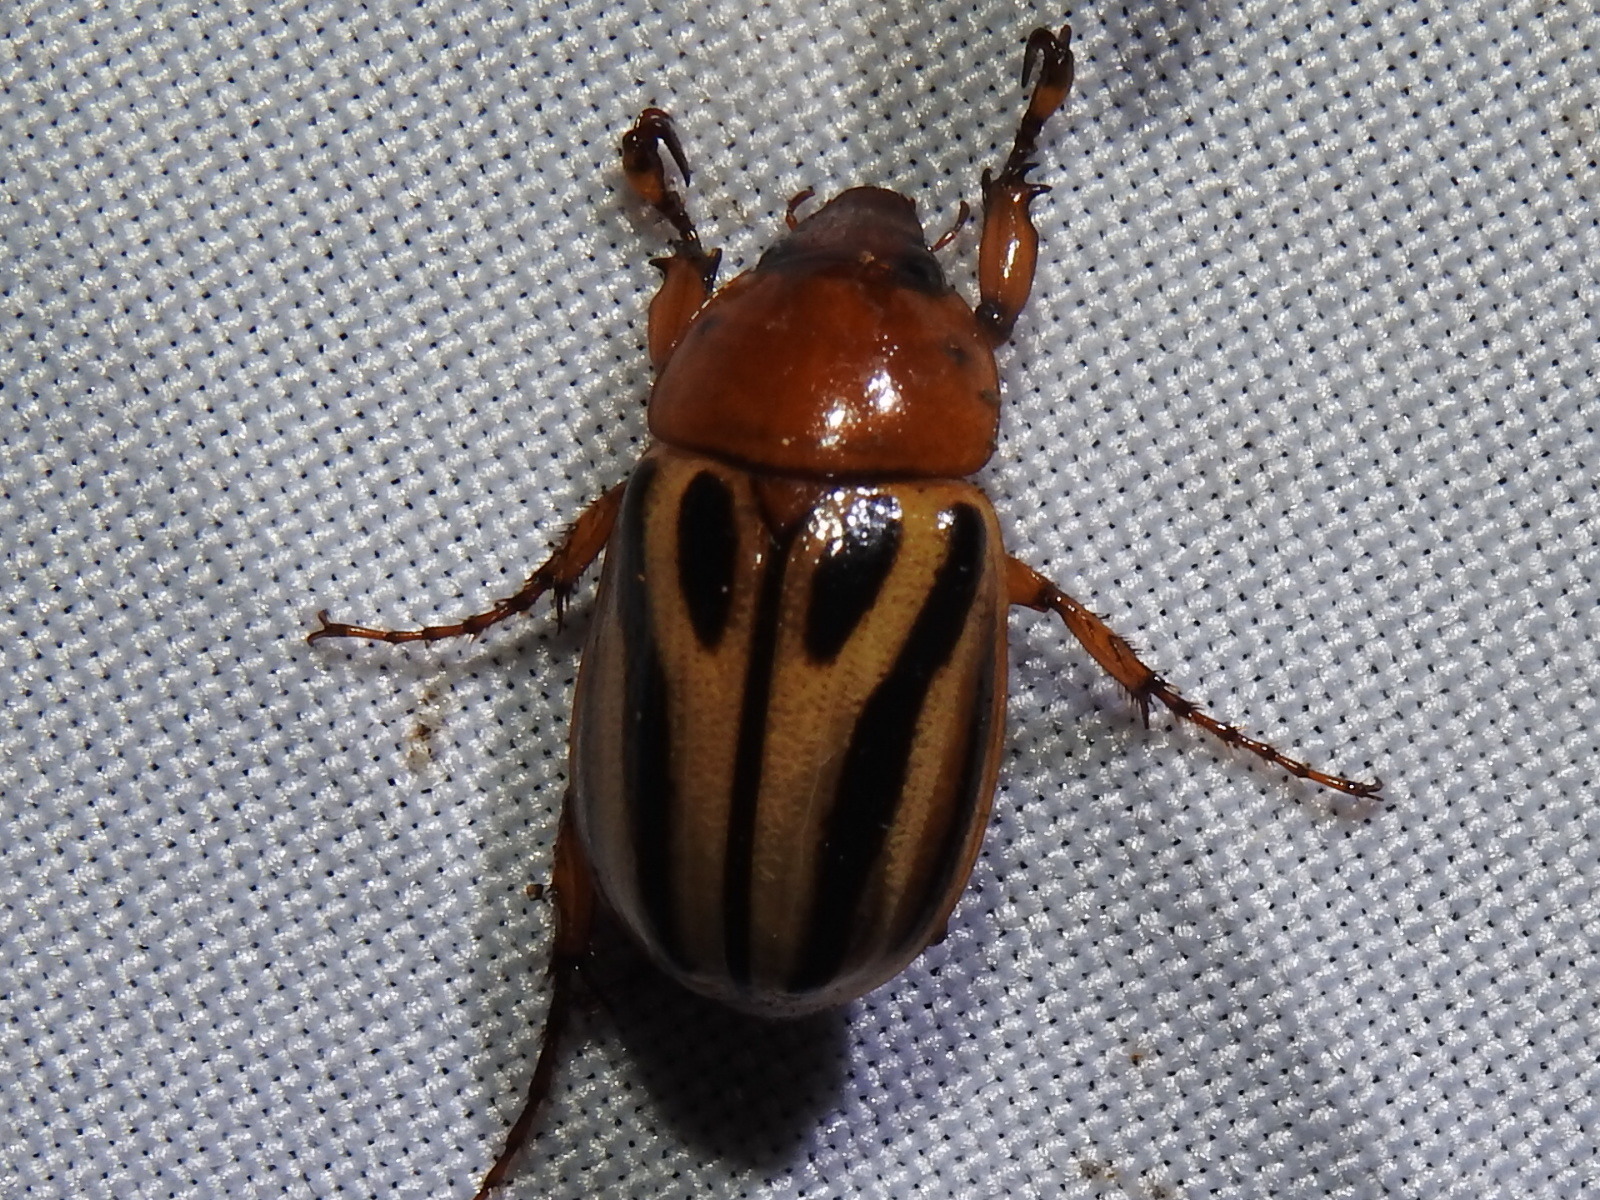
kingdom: Animalia
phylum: Arthropoda
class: Insecta
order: Coleoptera
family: Scarabaeidae
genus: Cyclocephala
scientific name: Cyclocephala erotylina
